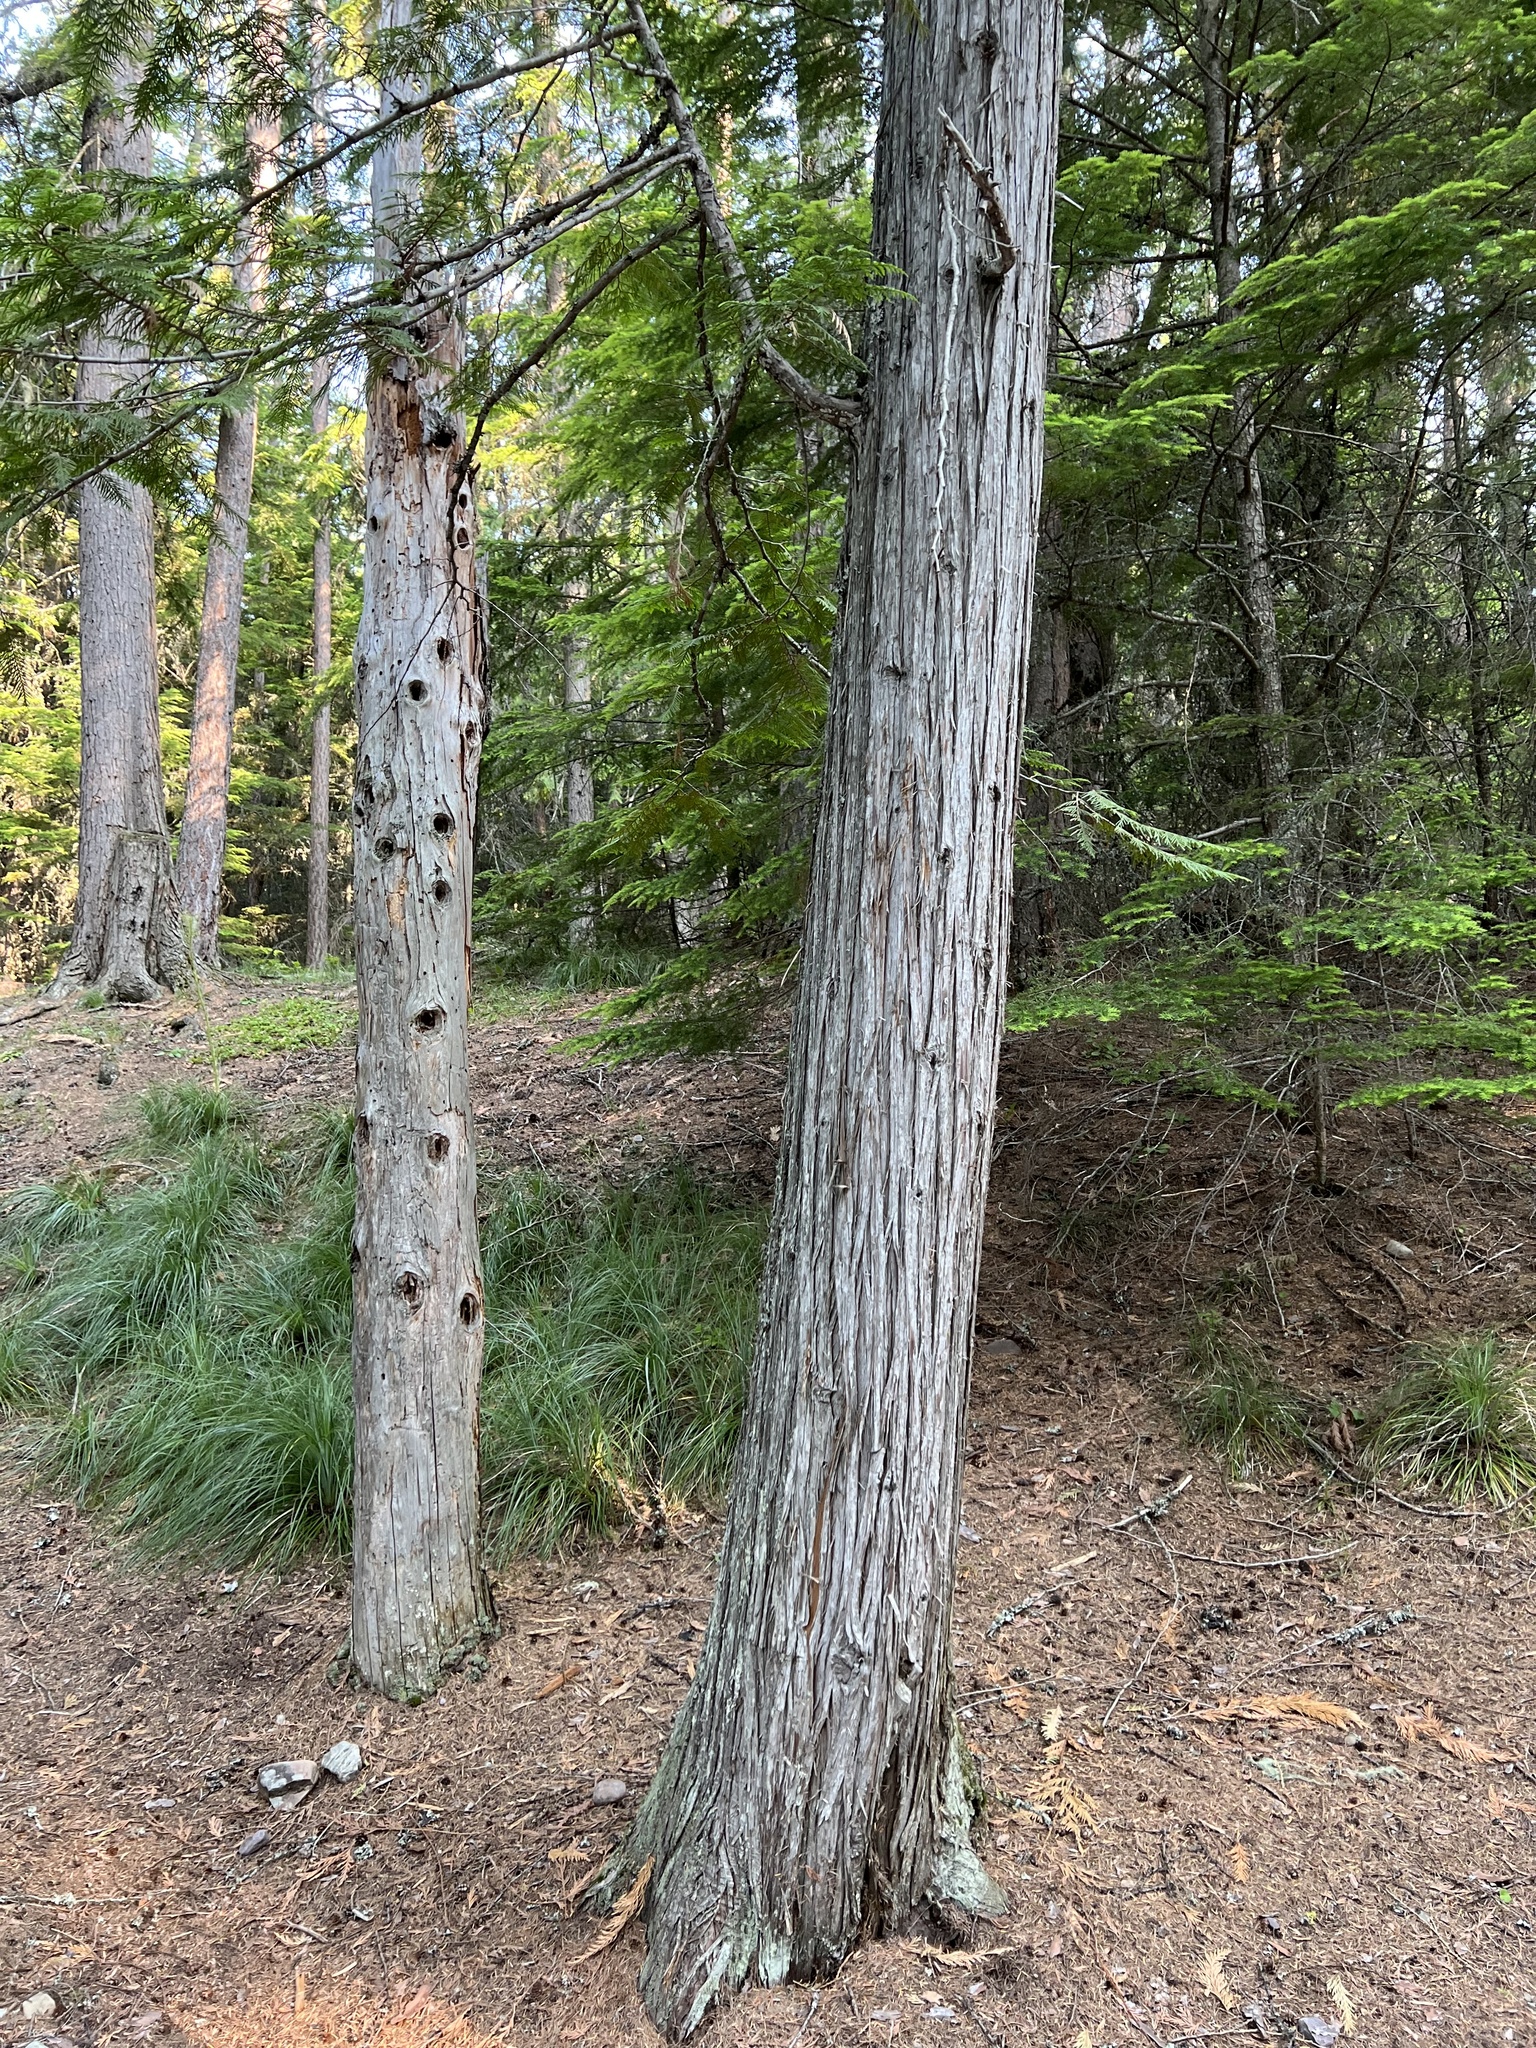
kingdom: Plantae
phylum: Tracheophyta
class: Pinopsida
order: Pinales
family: Cupressaceae
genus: Thuja
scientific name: Thuja plicata
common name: Western red-cedar
